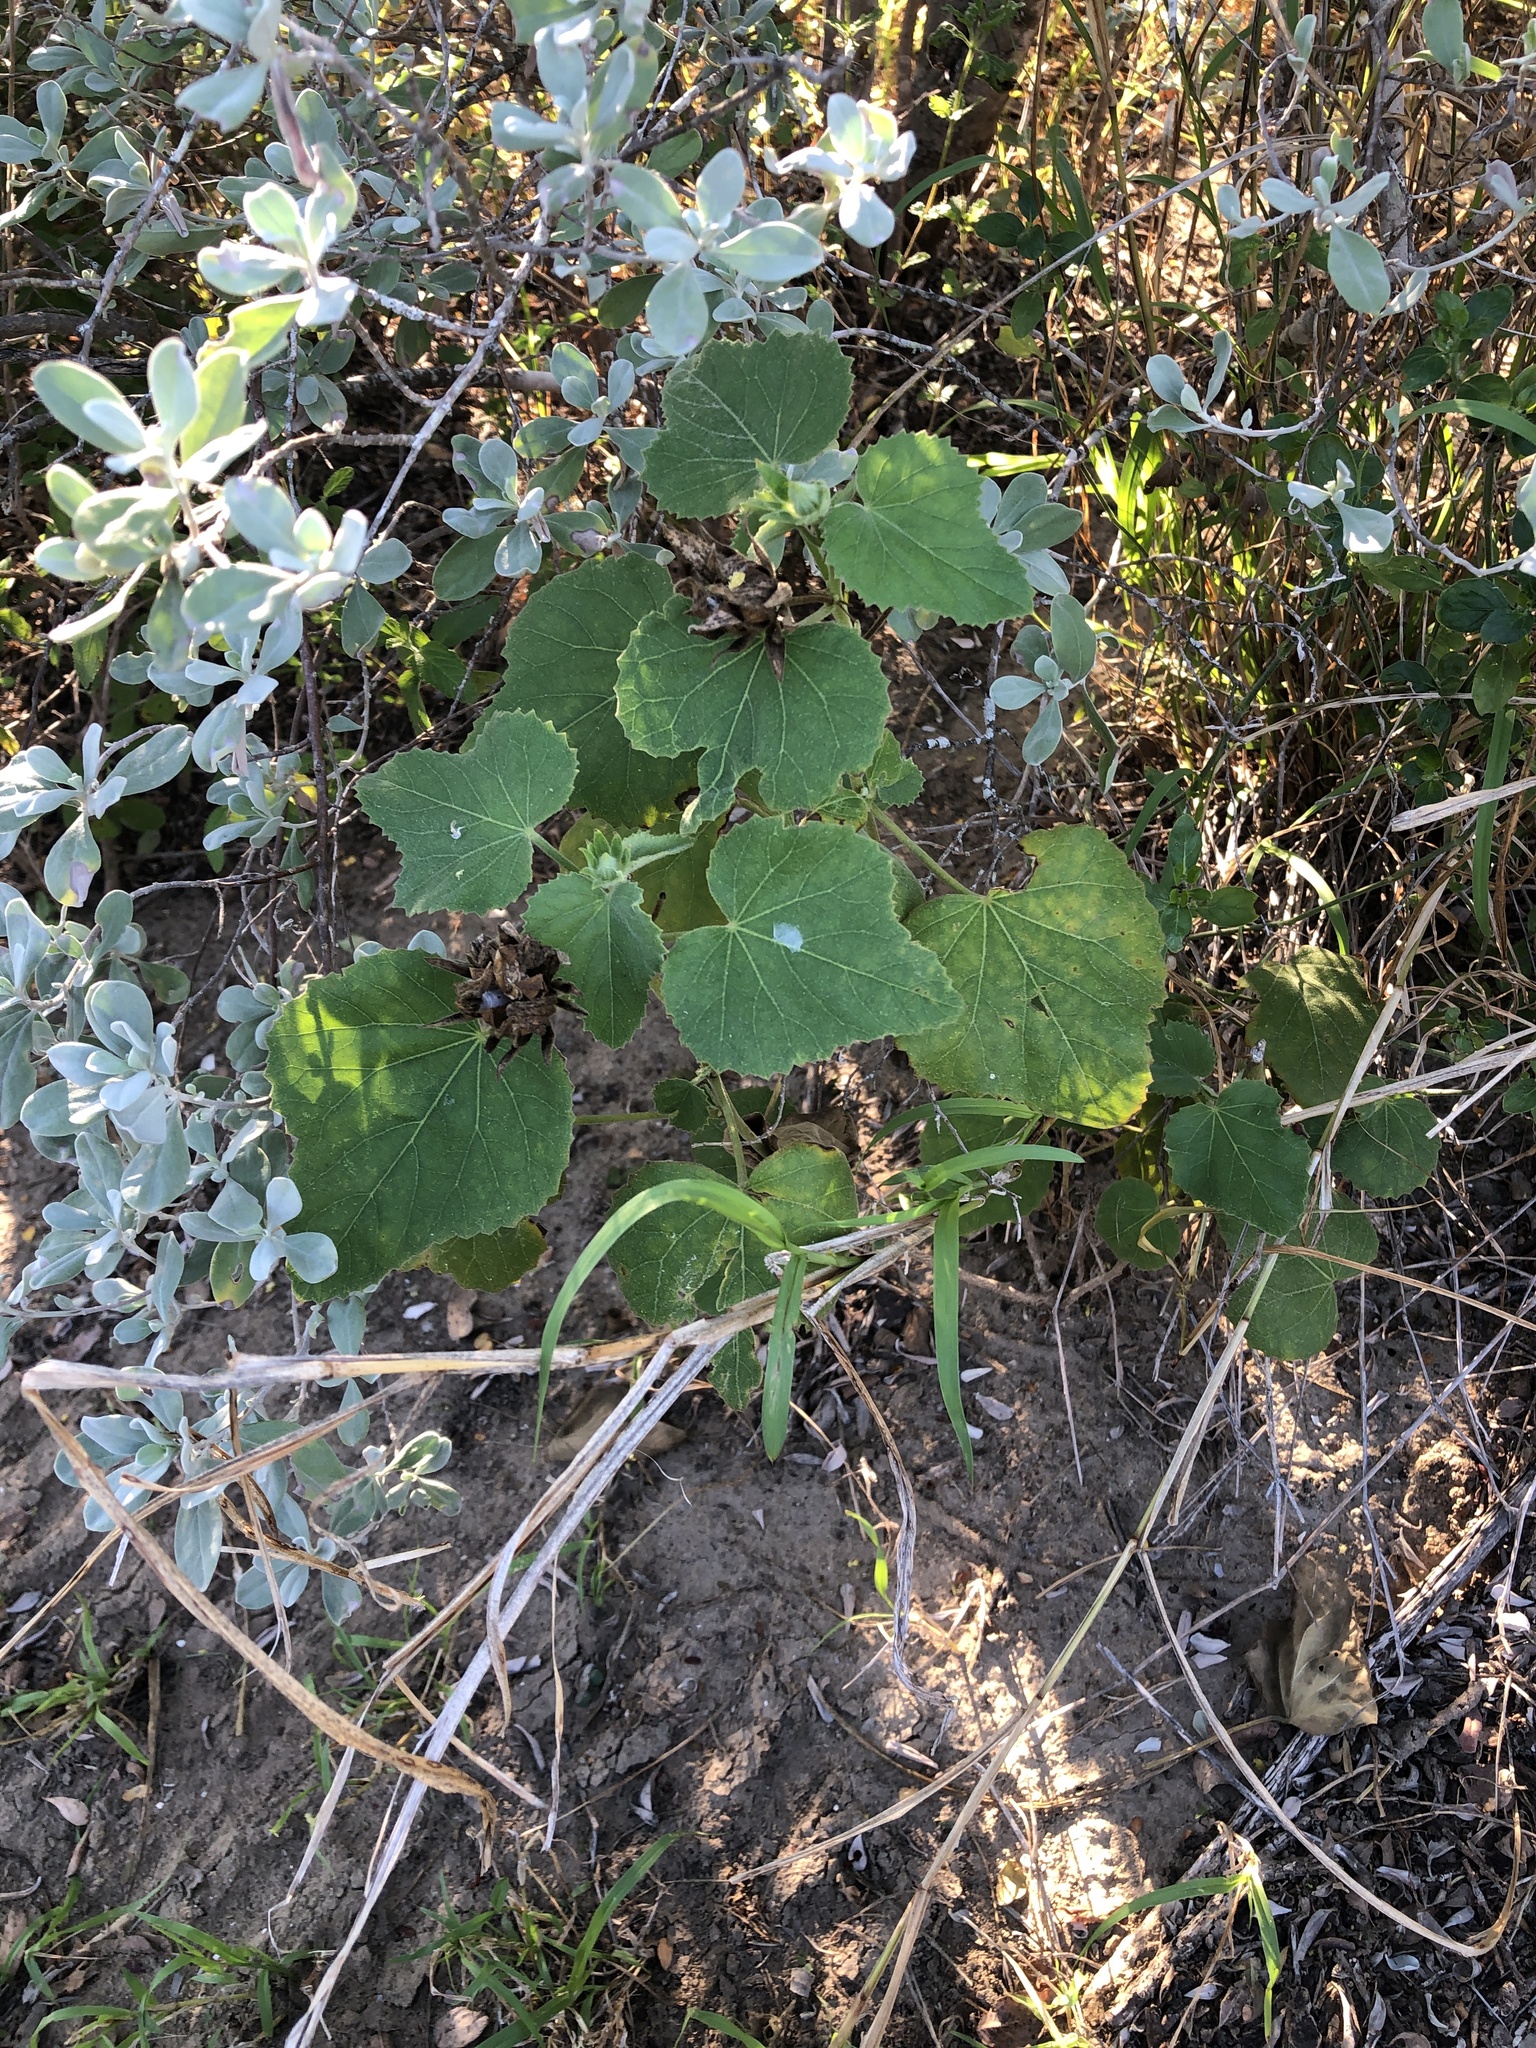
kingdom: Plantae
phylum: Tracheophyta
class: Magnoliopsida
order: Malvales
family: Malvaceae
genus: Hibiscus
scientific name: Hibiscus martianus
